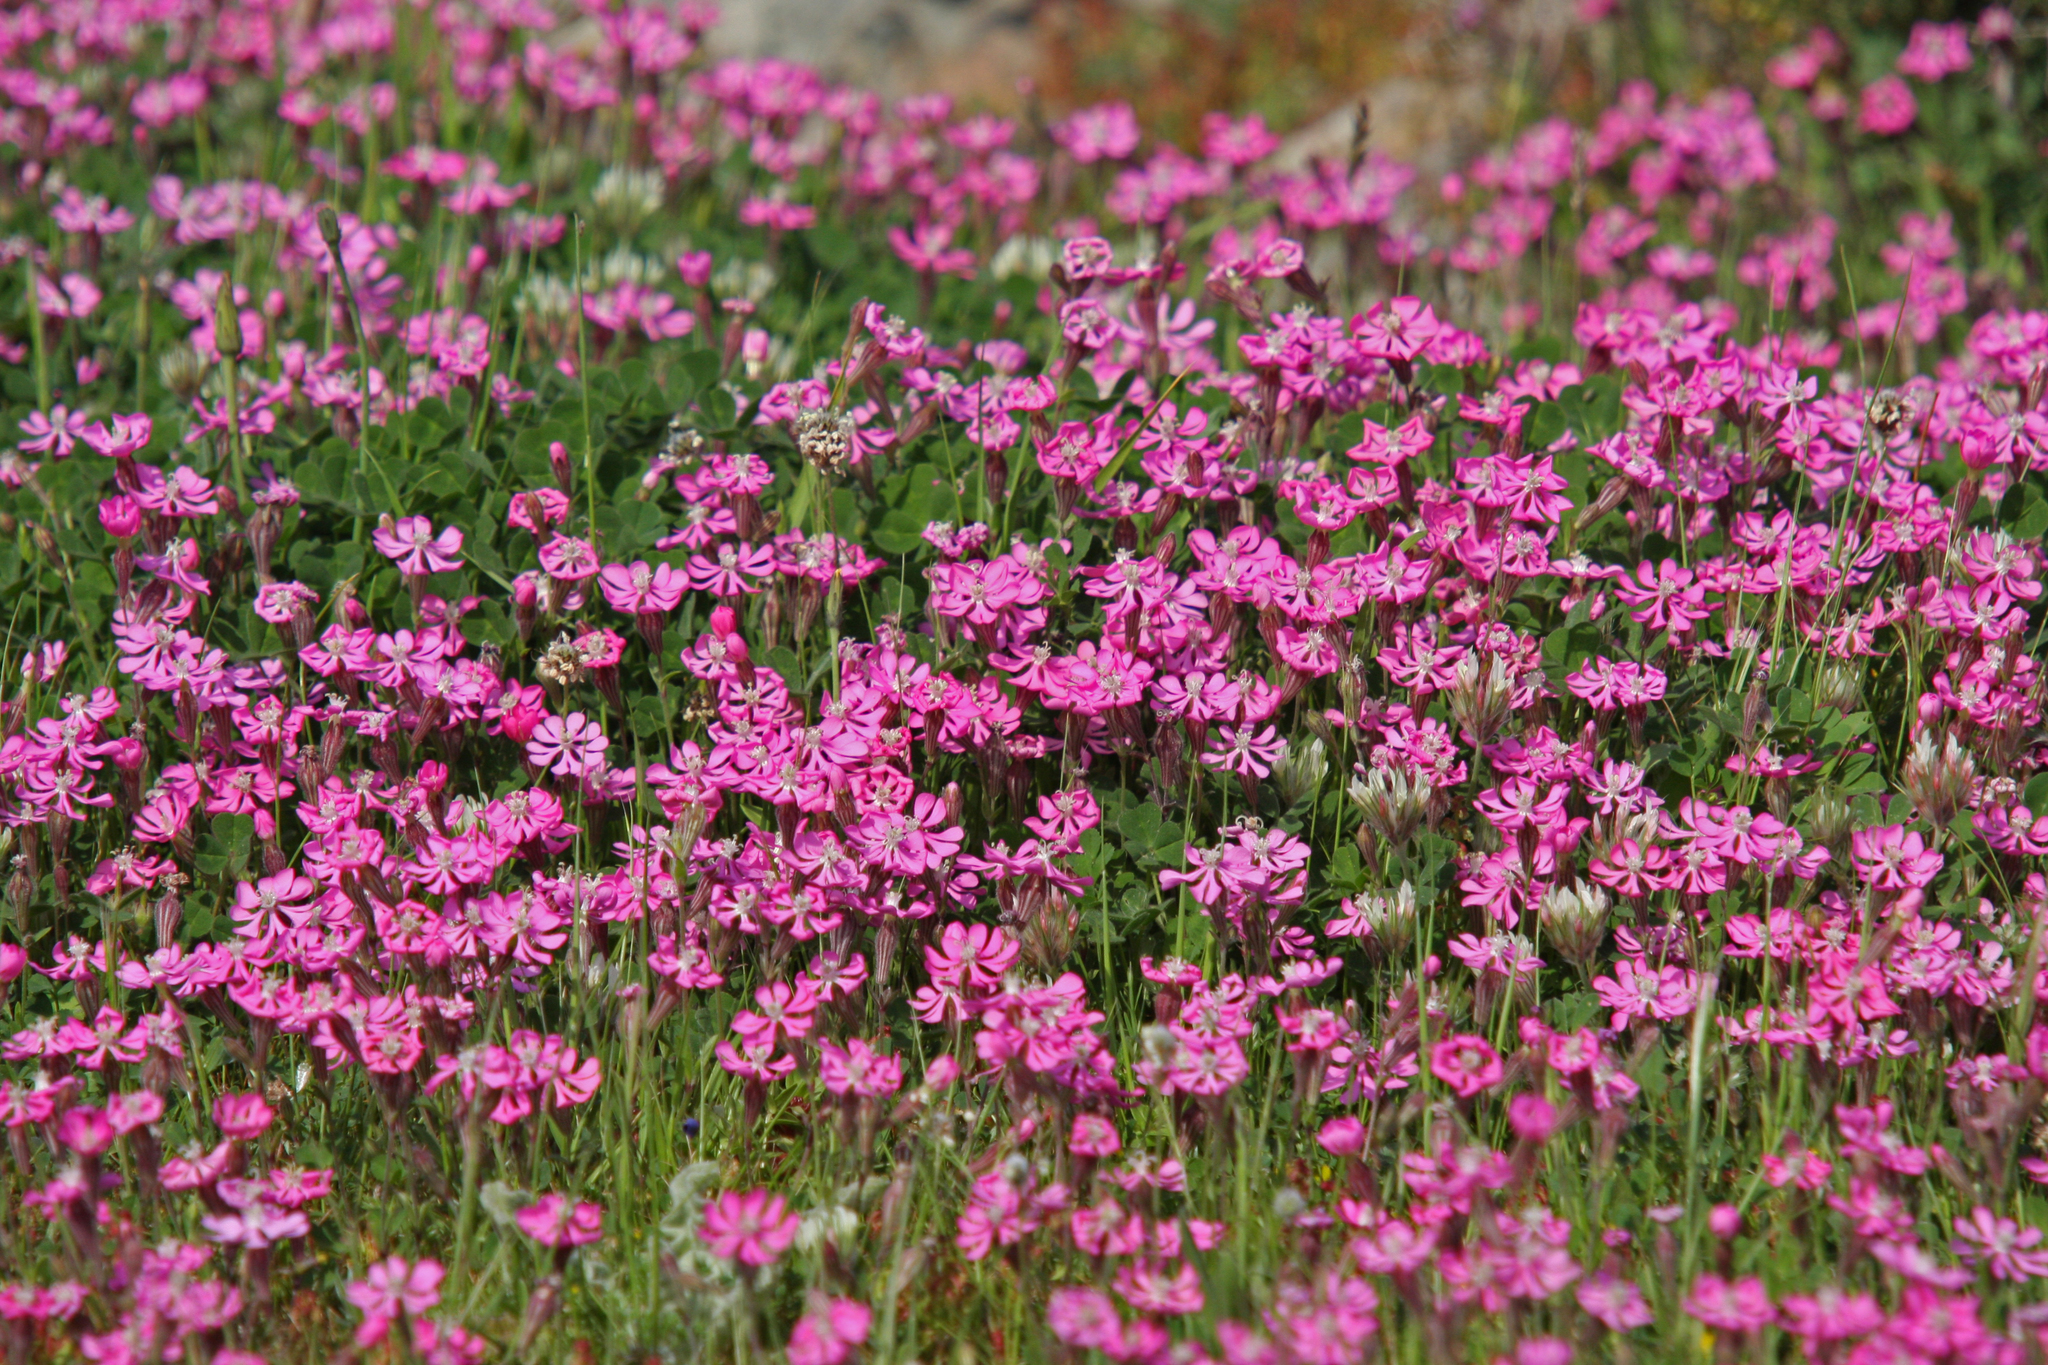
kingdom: Plantae
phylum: Tracheophyta
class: Magnoliopsida
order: Caryophyllales
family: Caryophyllaceae
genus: Silene
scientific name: Silene colorata
